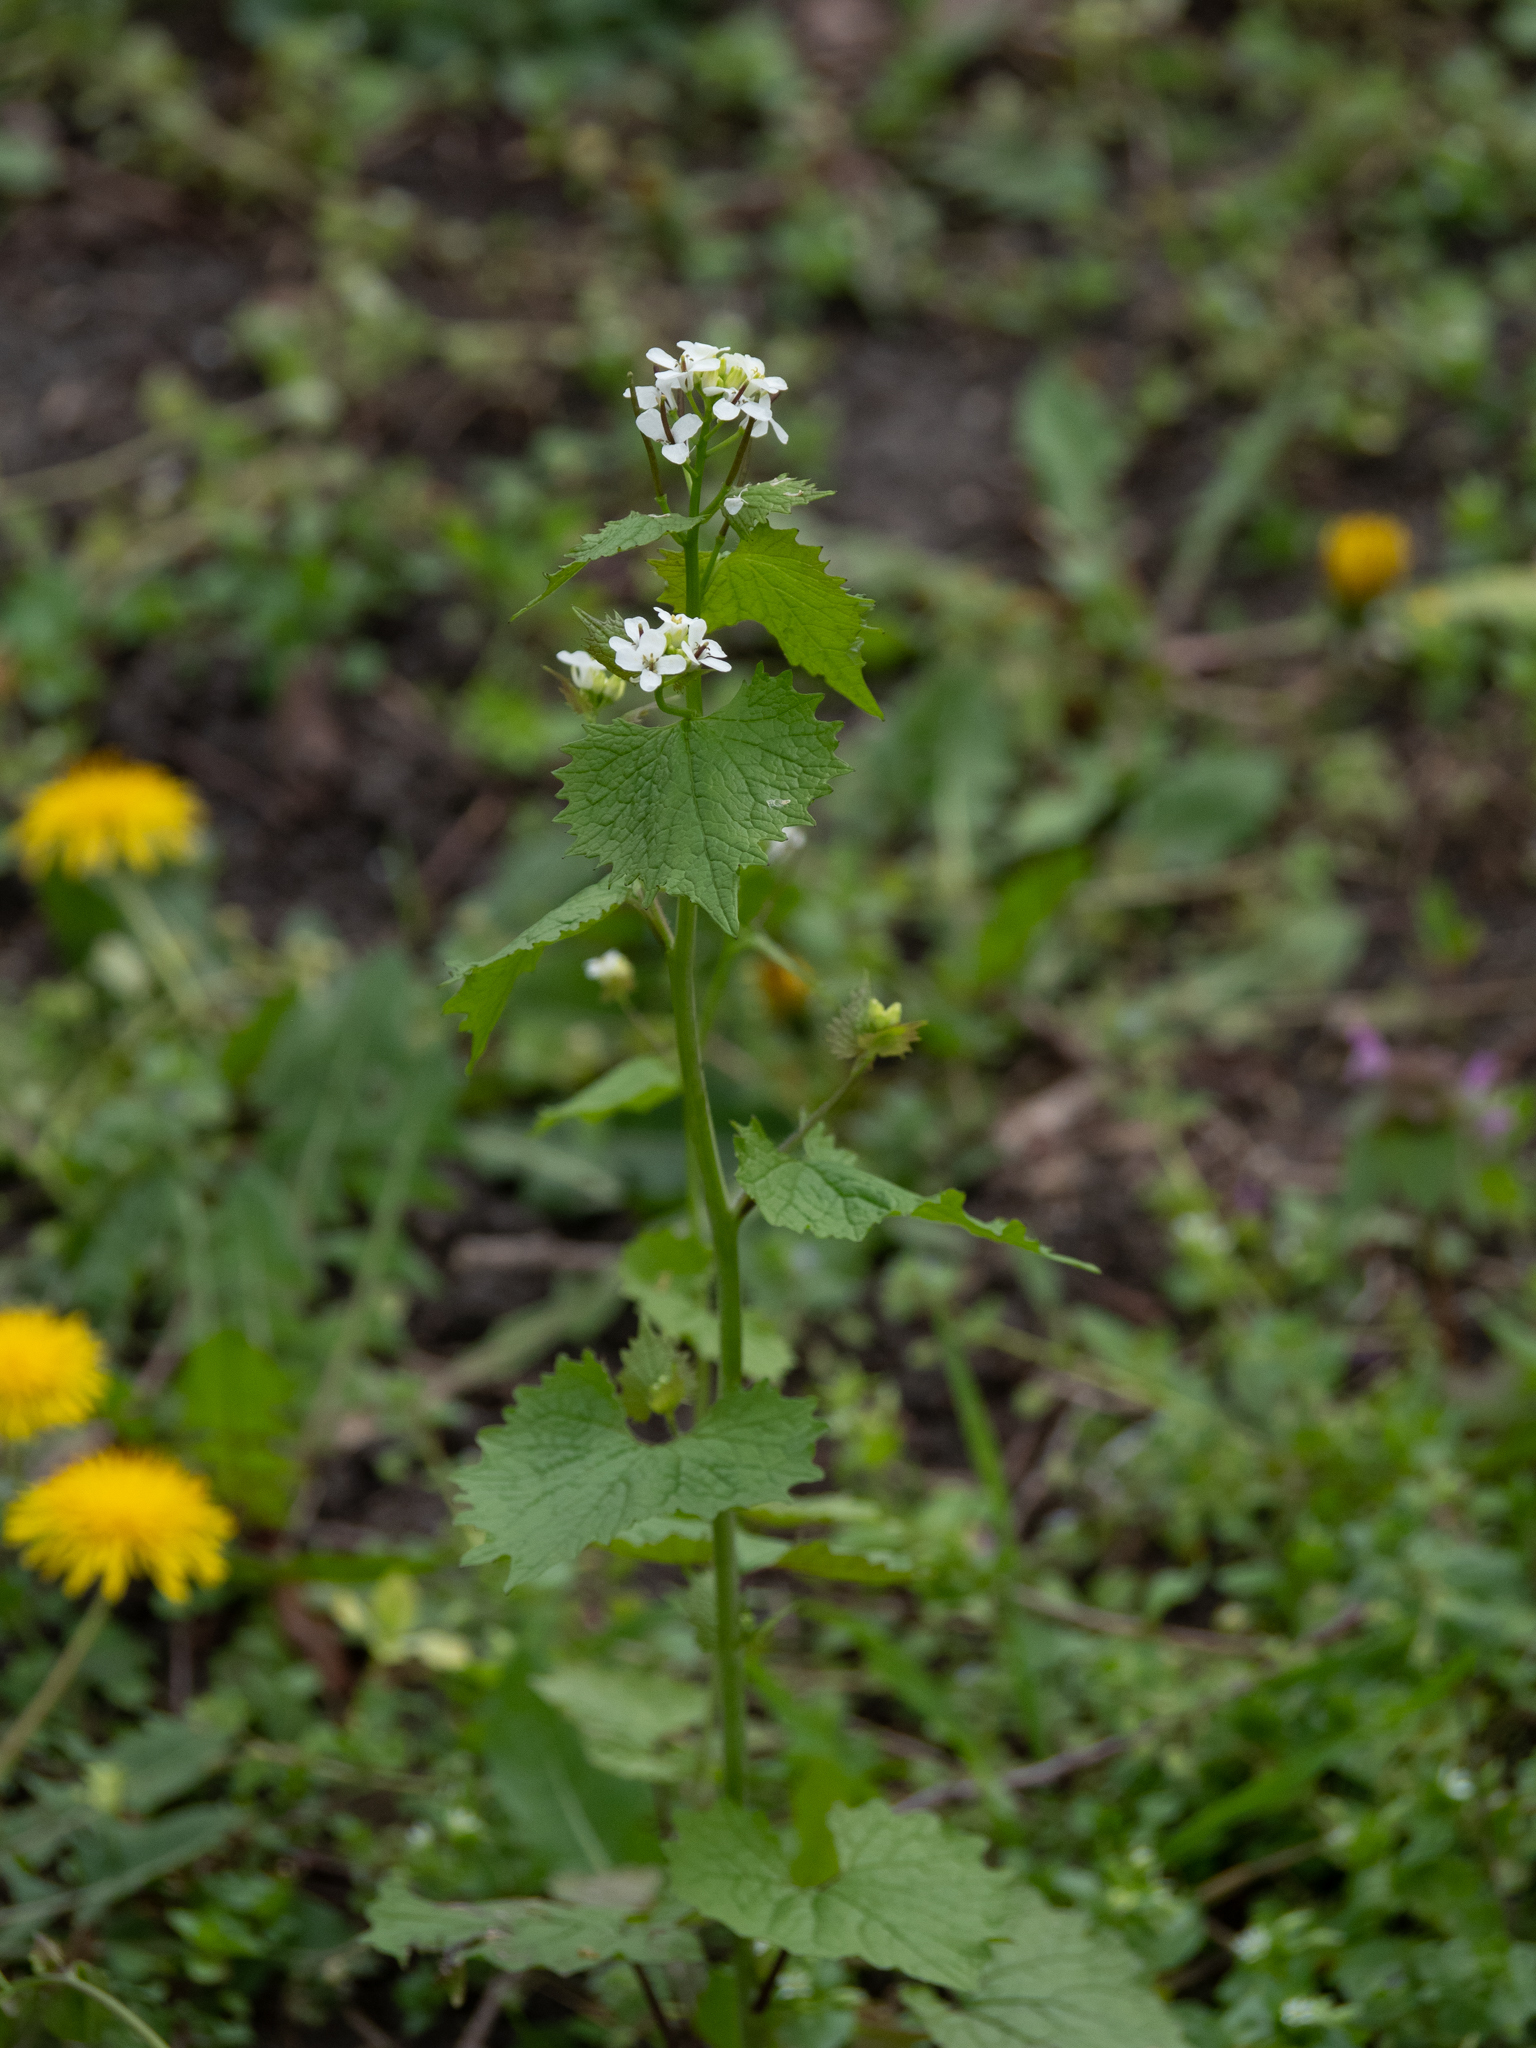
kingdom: Plantae
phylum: Tracheophyta
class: Magnoliopsida
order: Brassicales
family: Brassicaceae
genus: Alliaria
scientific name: Alliaria petiolata
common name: Garlic mustard
